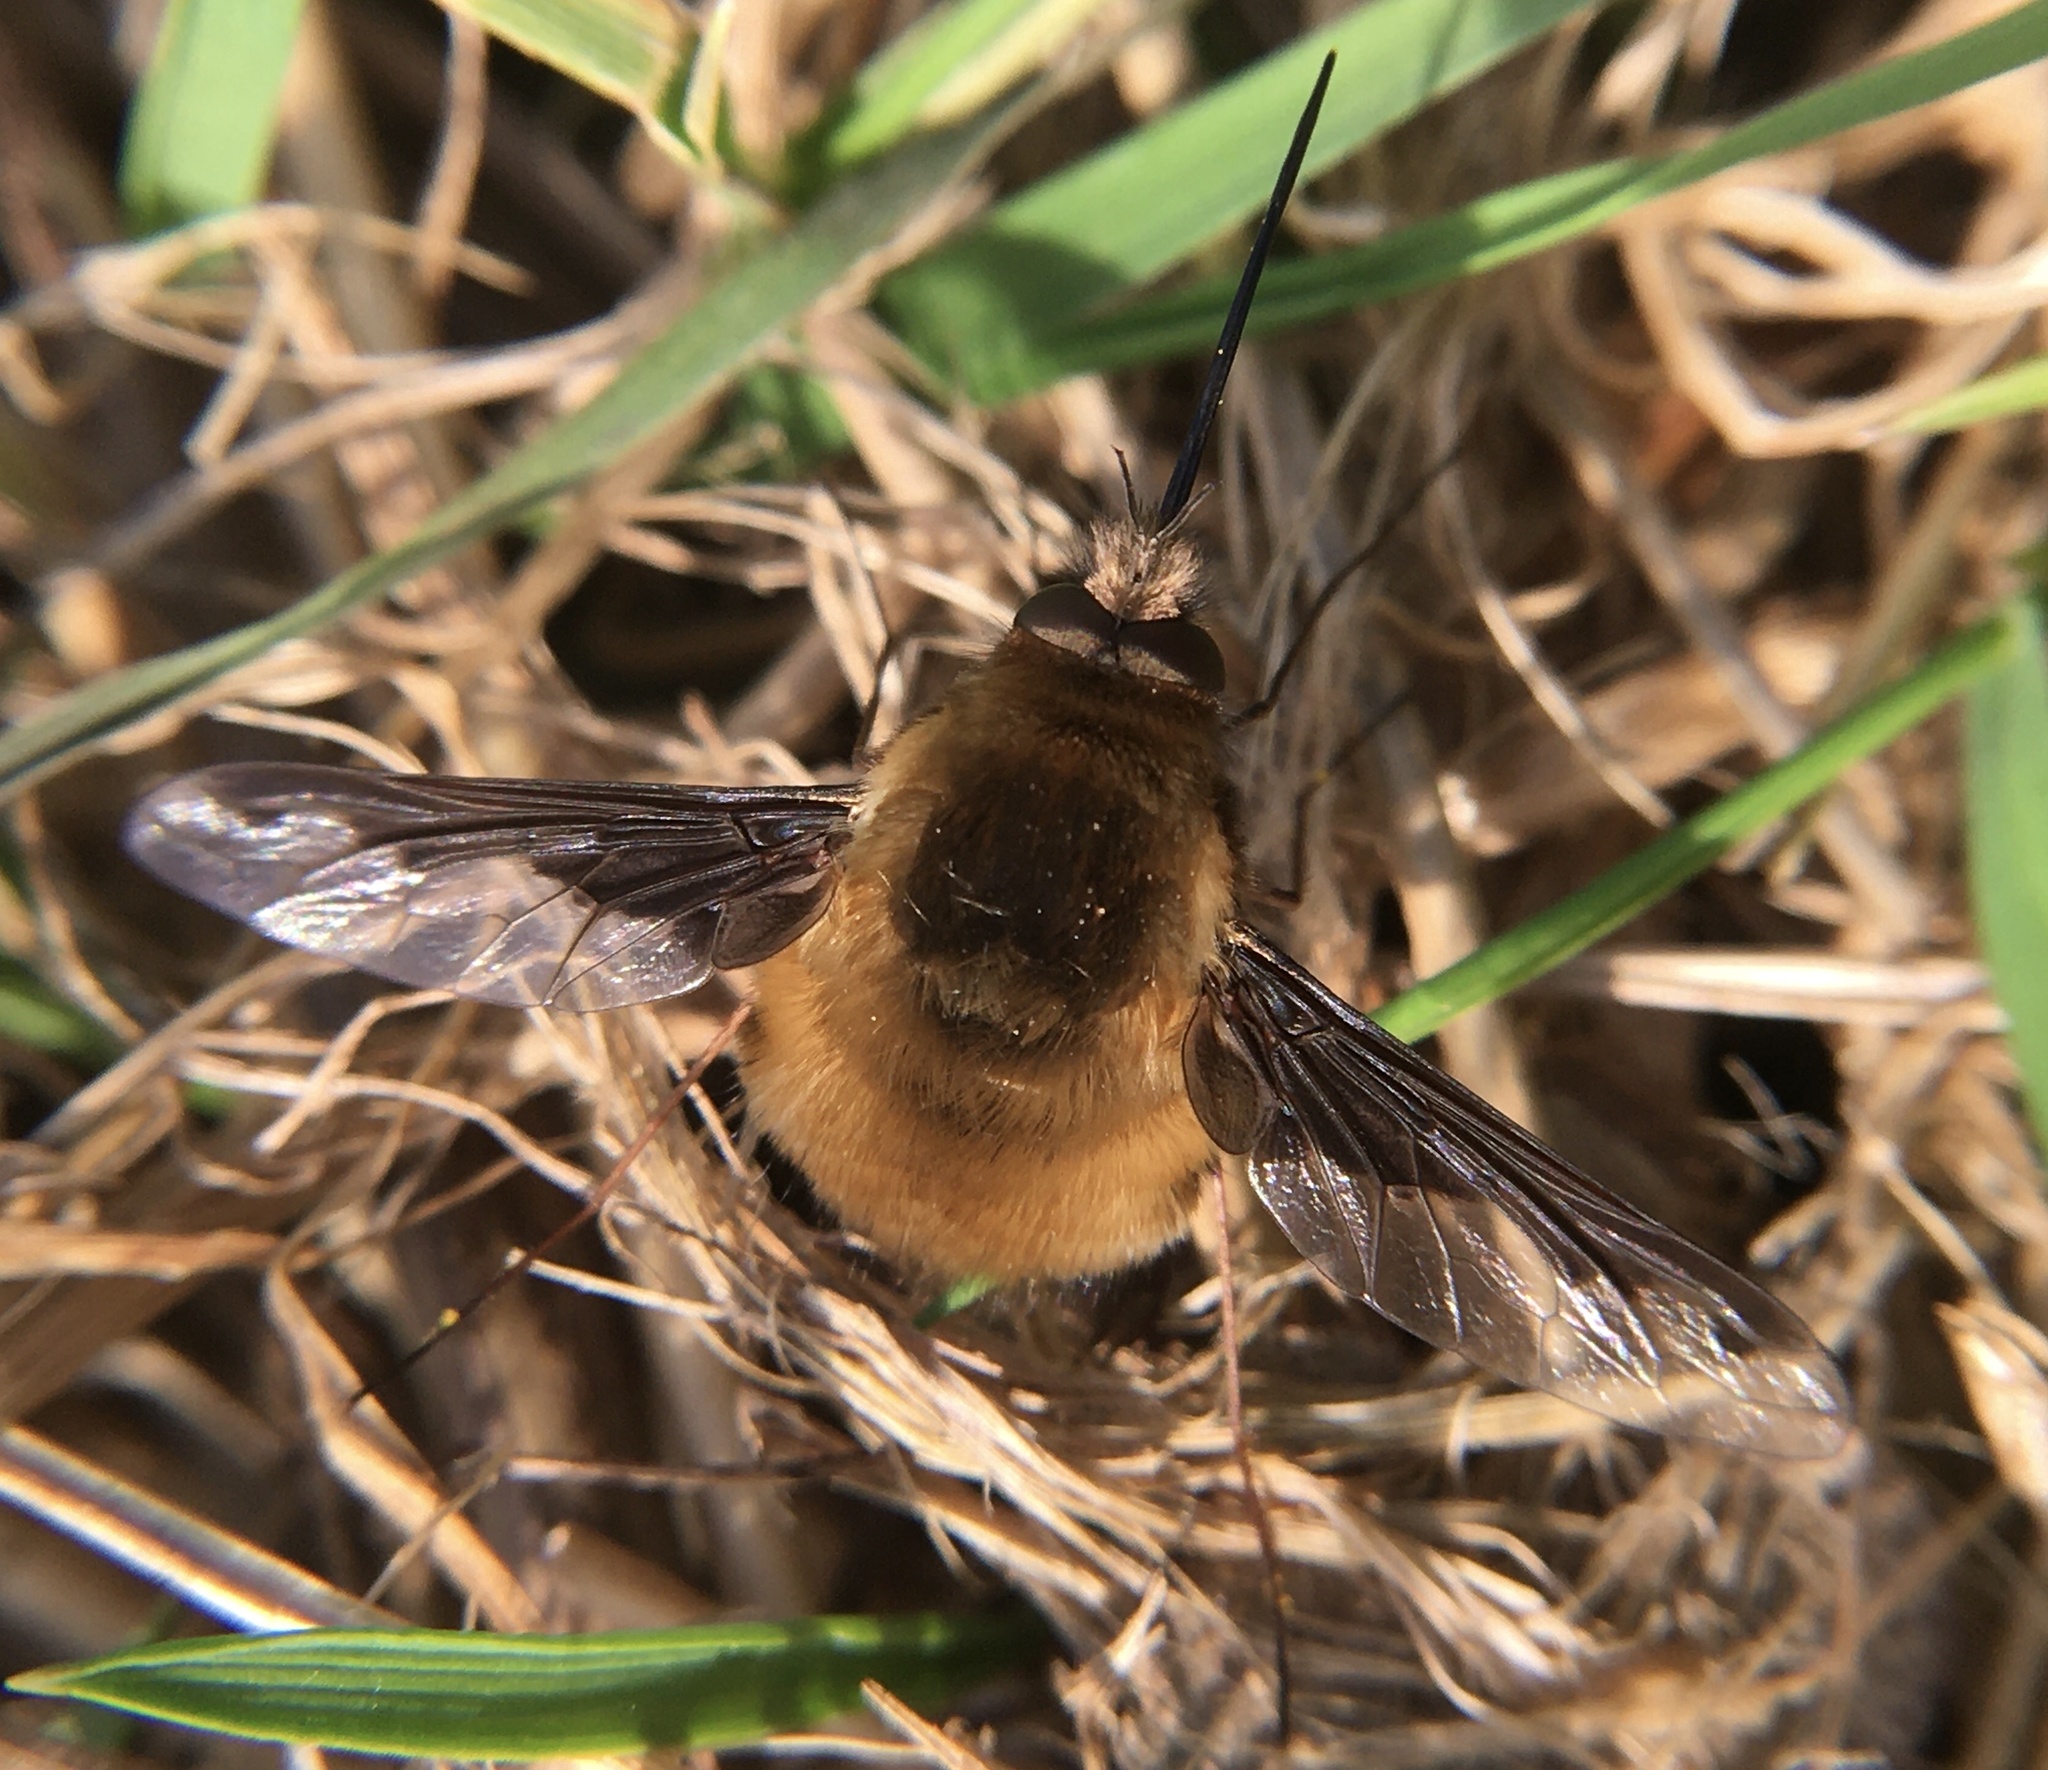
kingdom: Animalia
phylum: Arthropoda
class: Insecta
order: Diptera
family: Bombyliidae
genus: Bombylius
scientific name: Bombylius major
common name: Bee fly
